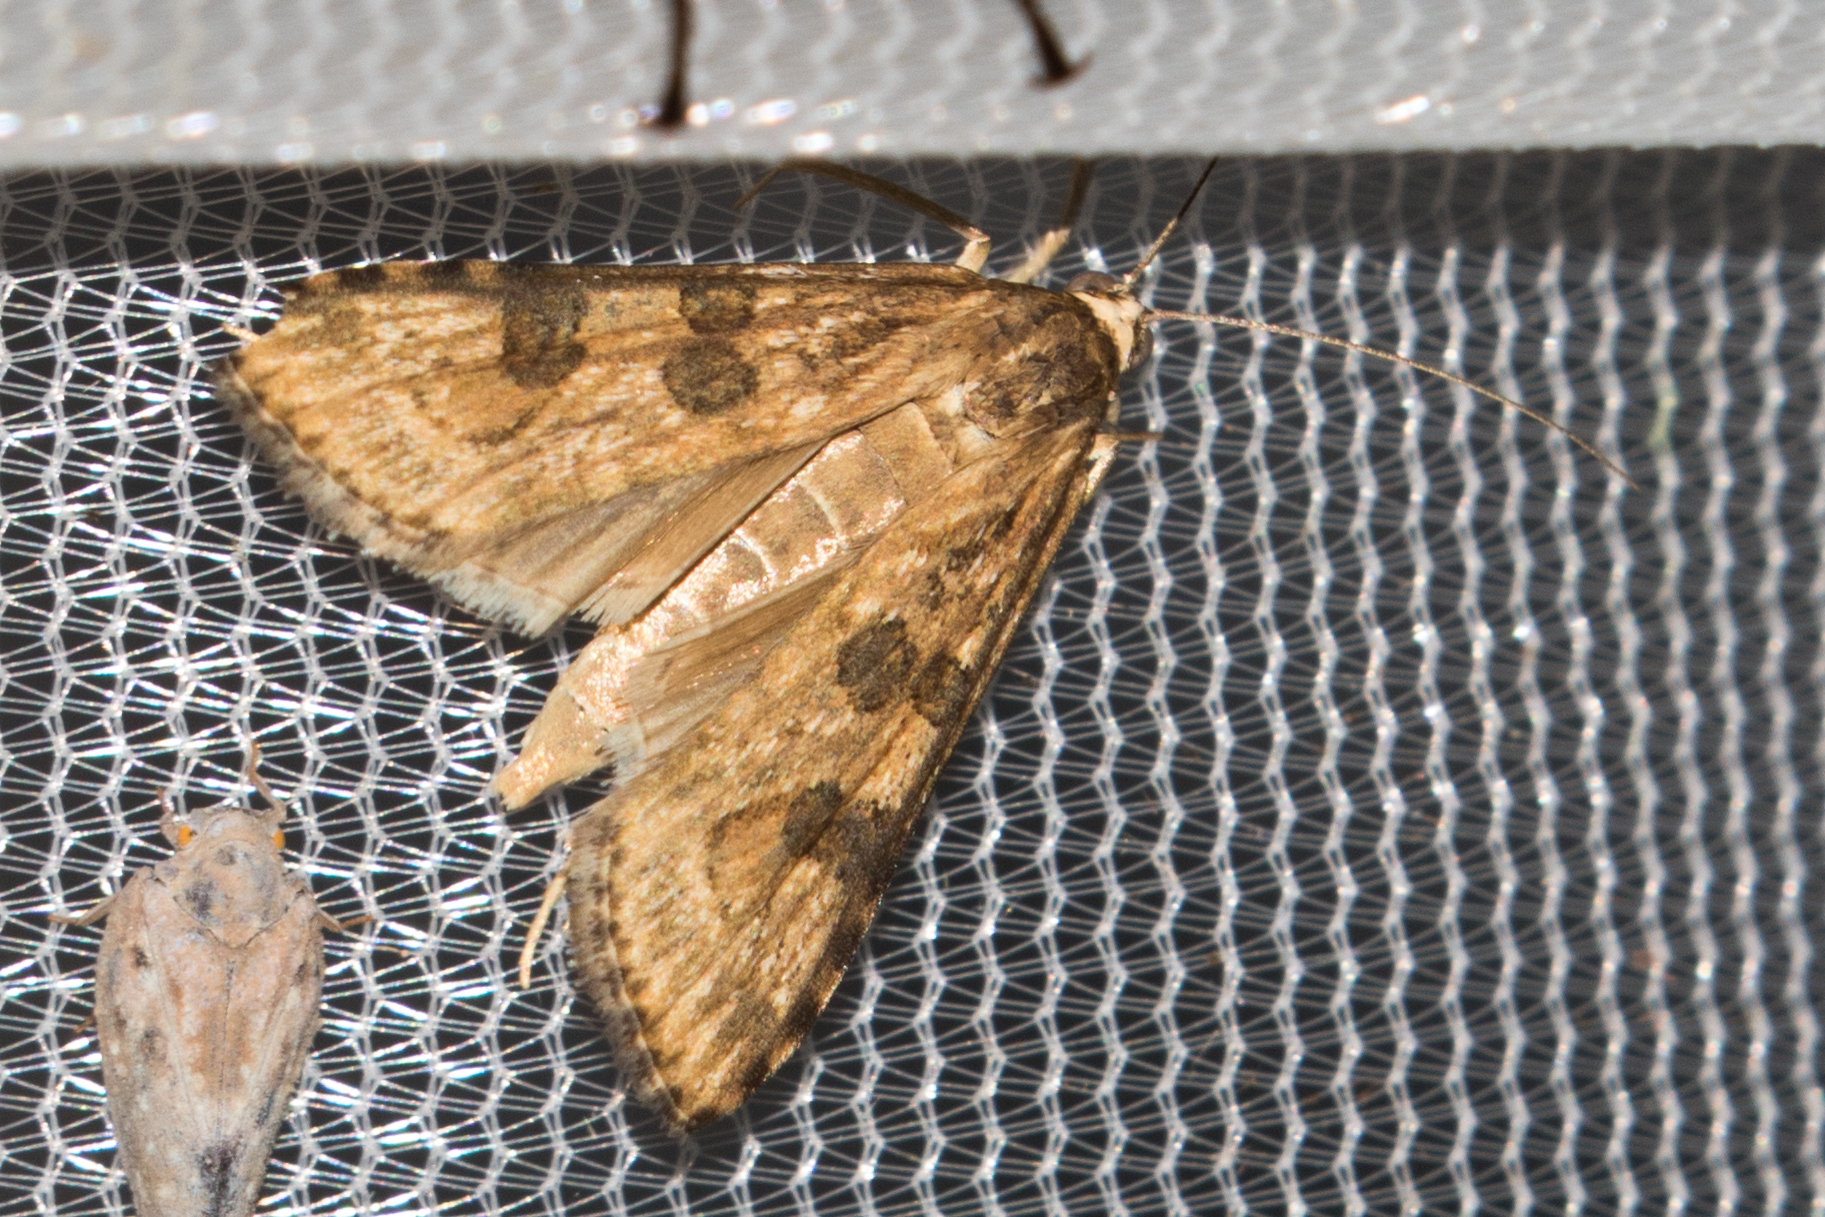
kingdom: Animalia
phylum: Arthropoda
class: Insecta
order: Lepidoptera
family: Crambidae
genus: Nomophila
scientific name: Nomophila nearctica
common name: American rush veneer
